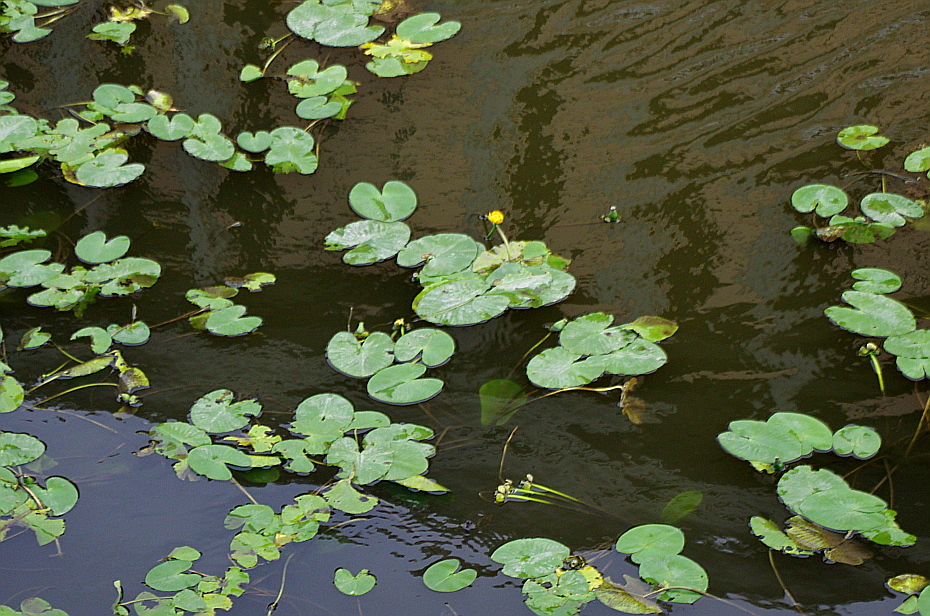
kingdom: Plantae
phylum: Tracheophyta
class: Magnoliopsida
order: Nymphaeales
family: Nymphaeaceae
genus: Nuphar
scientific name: Nuphar lutea
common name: Yellow water-lily
